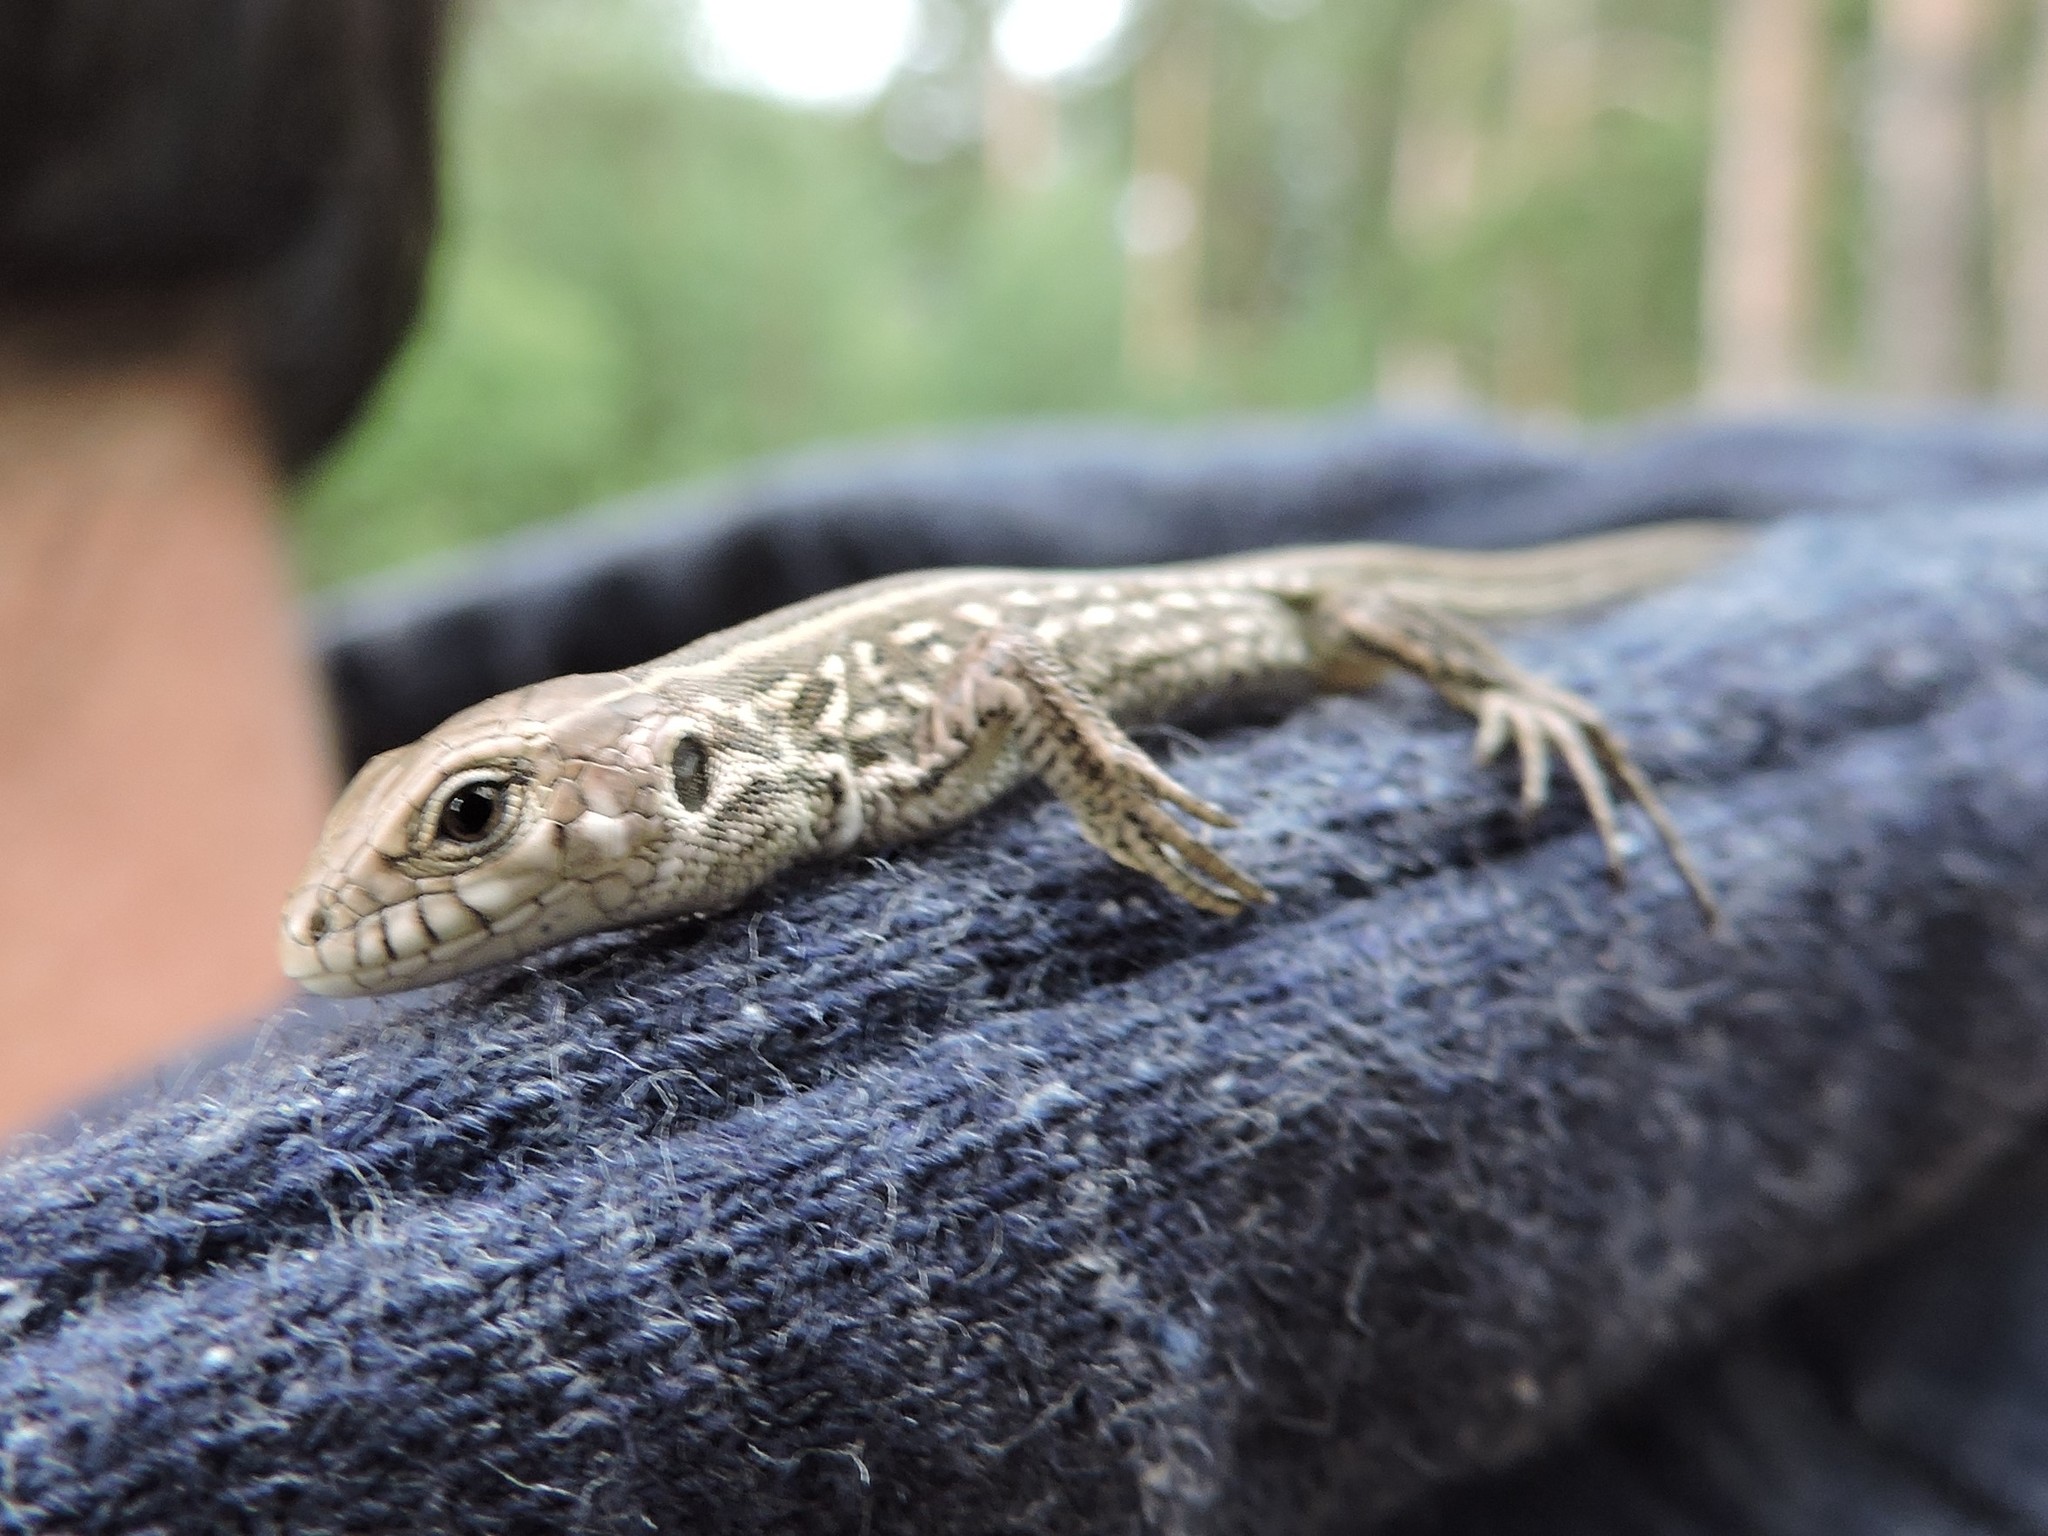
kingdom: Animalia
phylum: Chordata
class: Squamata
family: Lacertidae
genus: Lacerta
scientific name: Lacerta agilis
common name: Sand lizard
